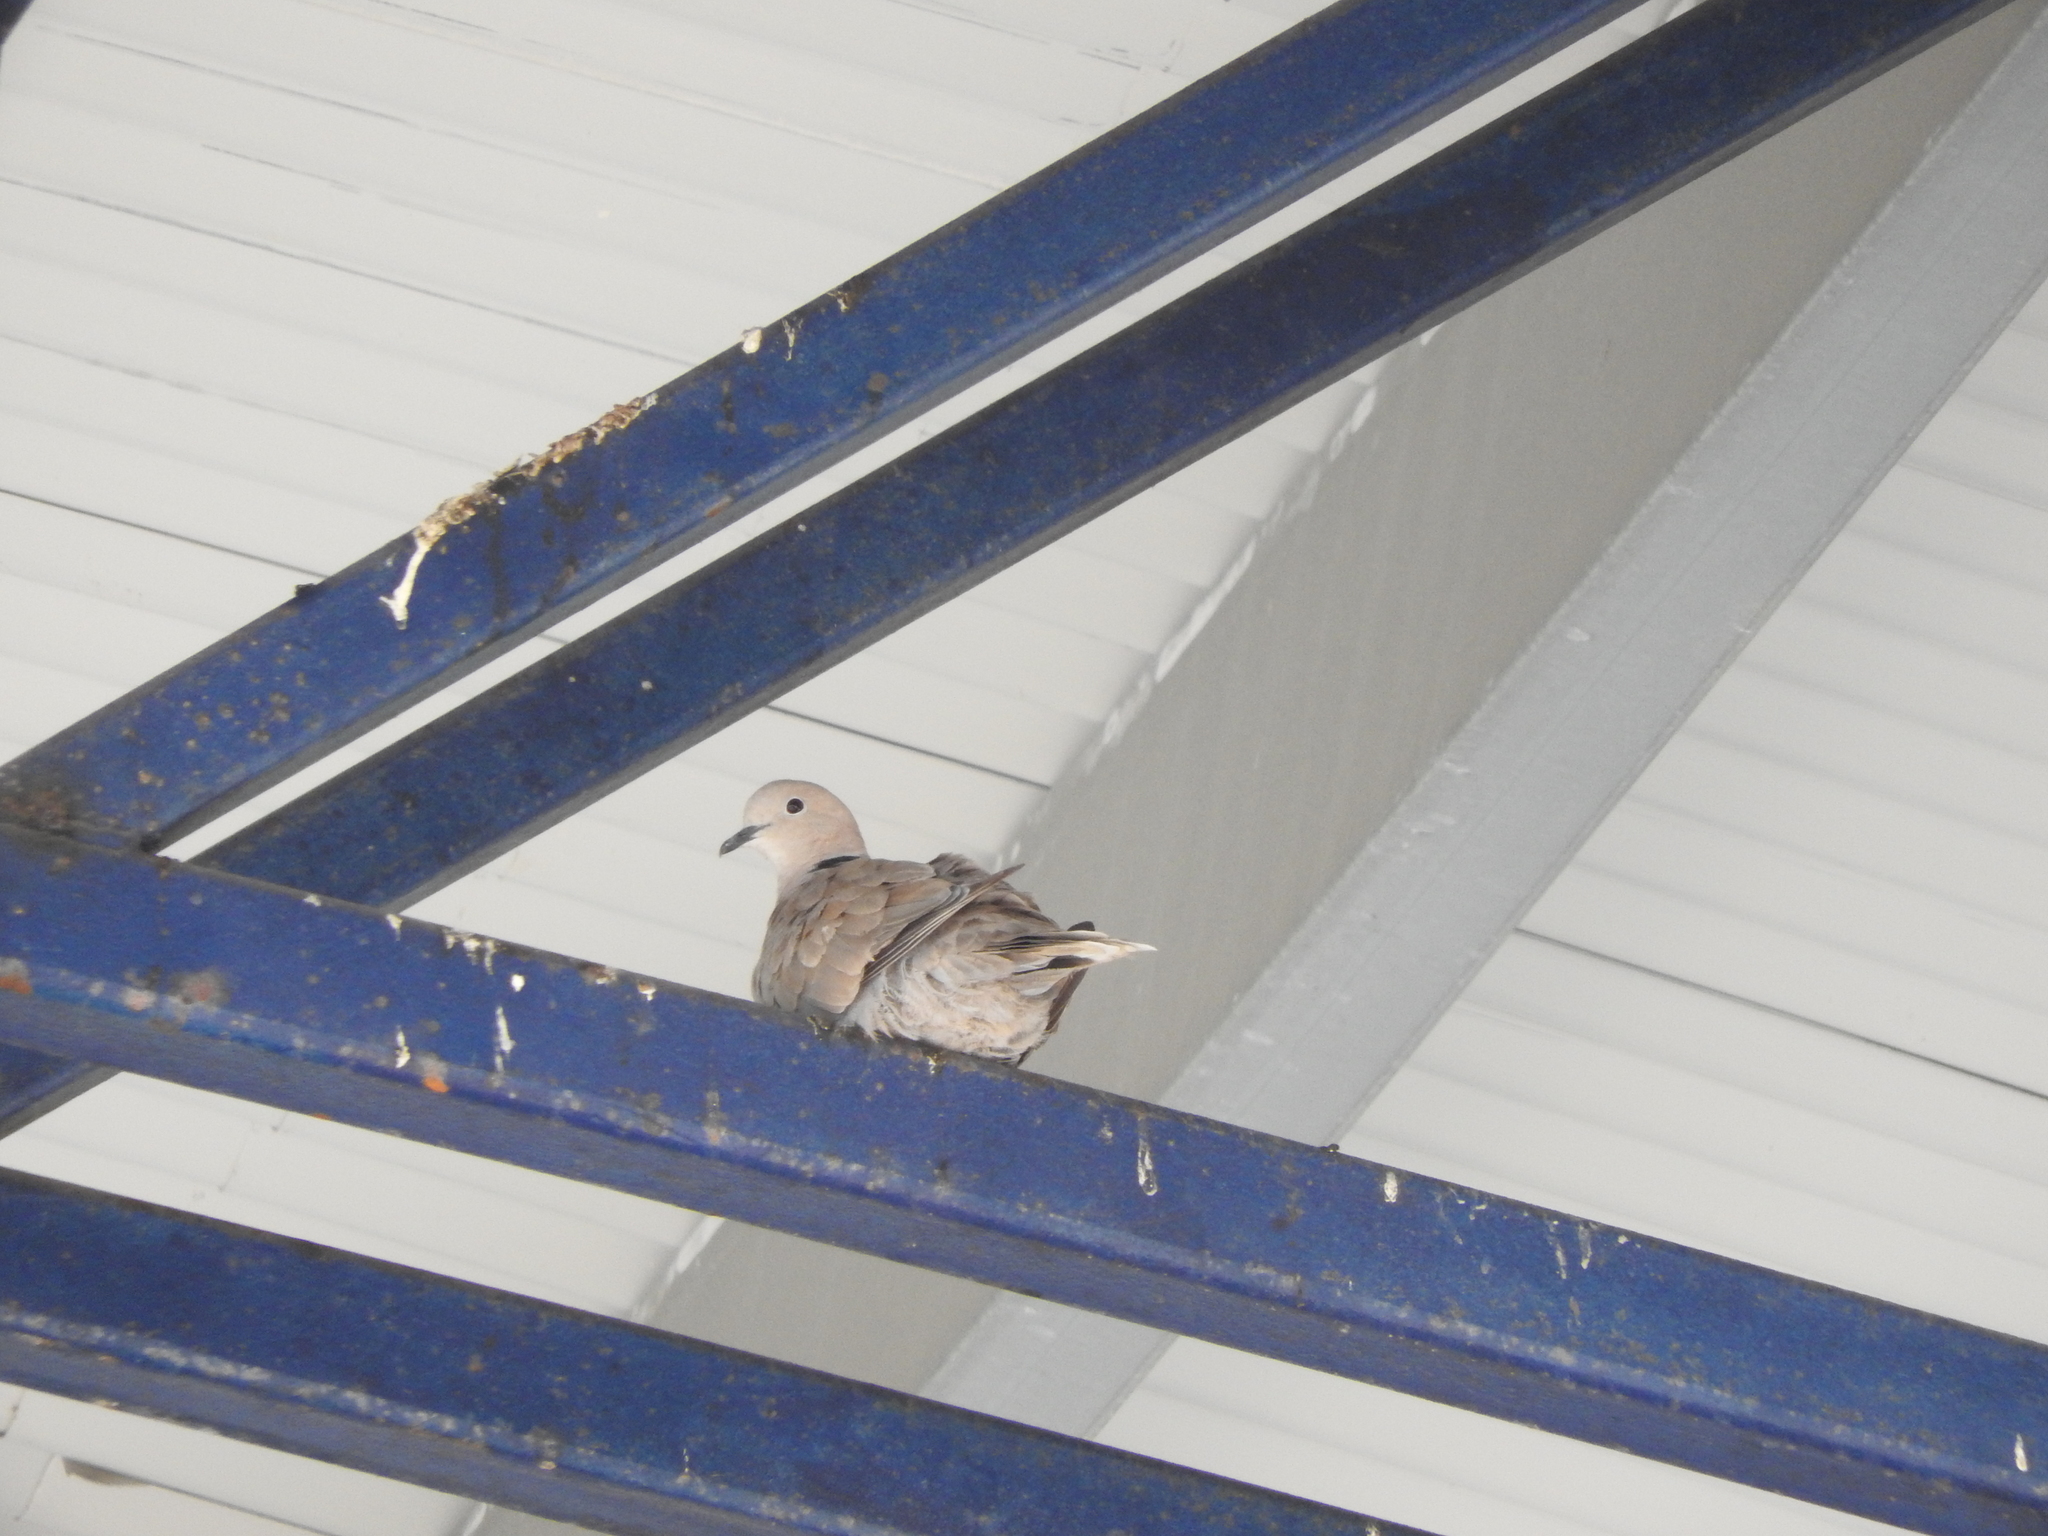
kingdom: Animalia
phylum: Chordata
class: Aves
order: Columbiformes
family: Columbidae
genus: Streptopelia
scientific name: Streptopelia decaocto
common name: Eurasian collared dove
